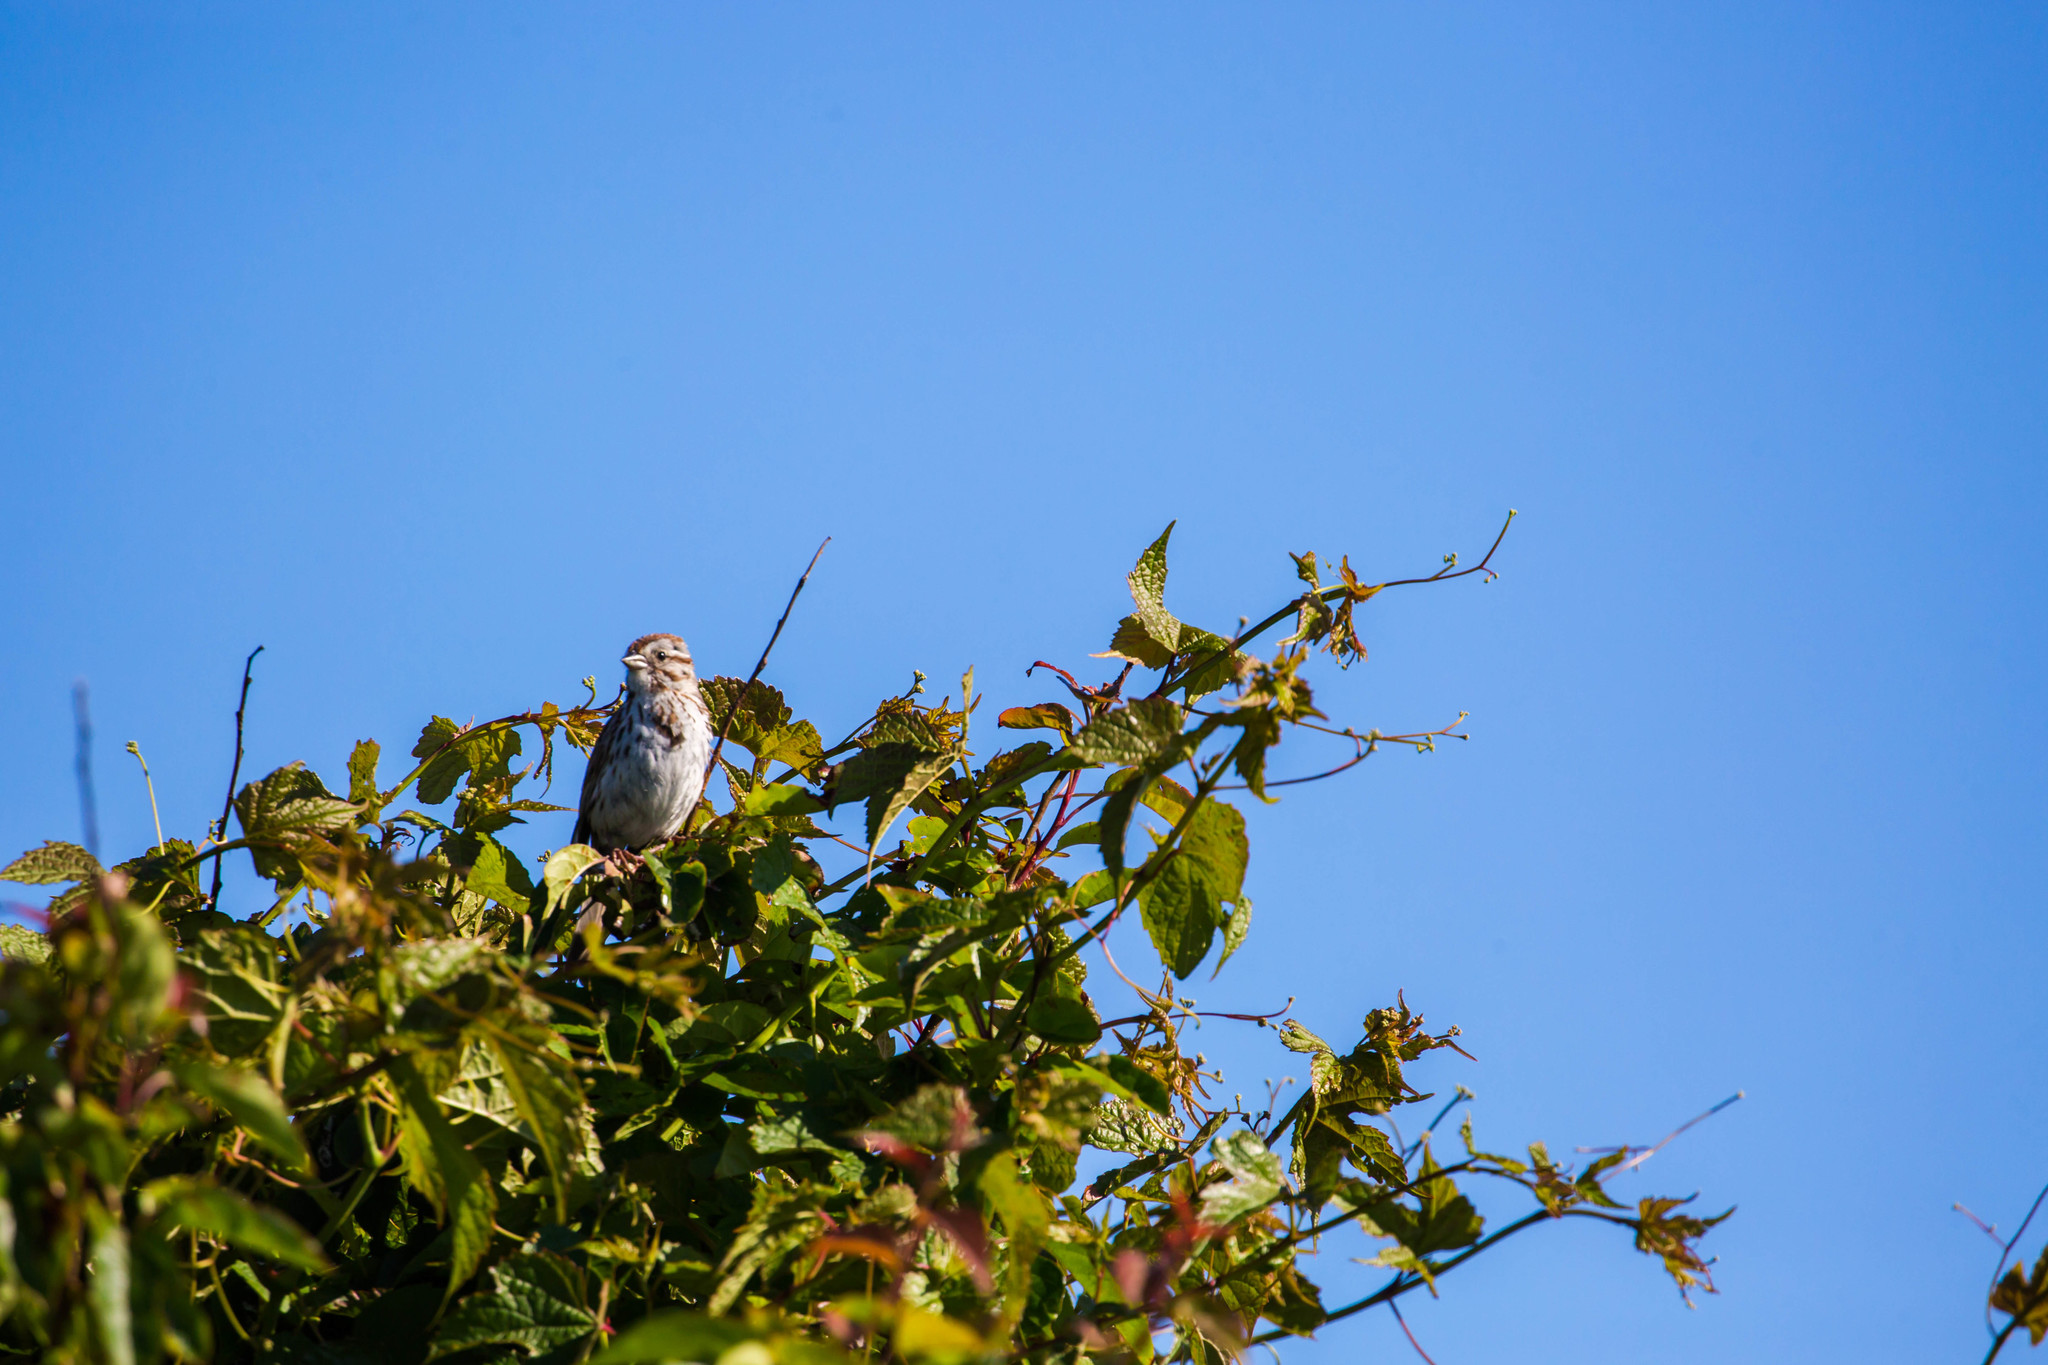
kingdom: Animalia
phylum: Chordata
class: Aves
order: Passeriformes
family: Passerellidae
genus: Melospiza
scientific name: Melospiza melodia
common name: Song sparrow
